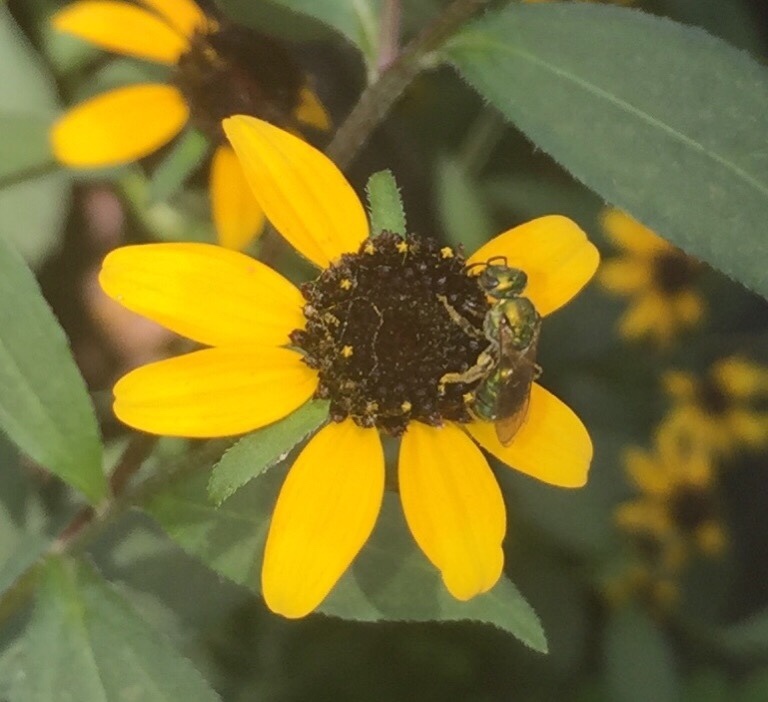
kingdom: Animalia
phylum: Arthropoda
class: Insecta
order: Hymenoptera
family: Halictidae
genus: Augochlora
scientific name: Augochlora pura
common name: Pure green sweat bee
